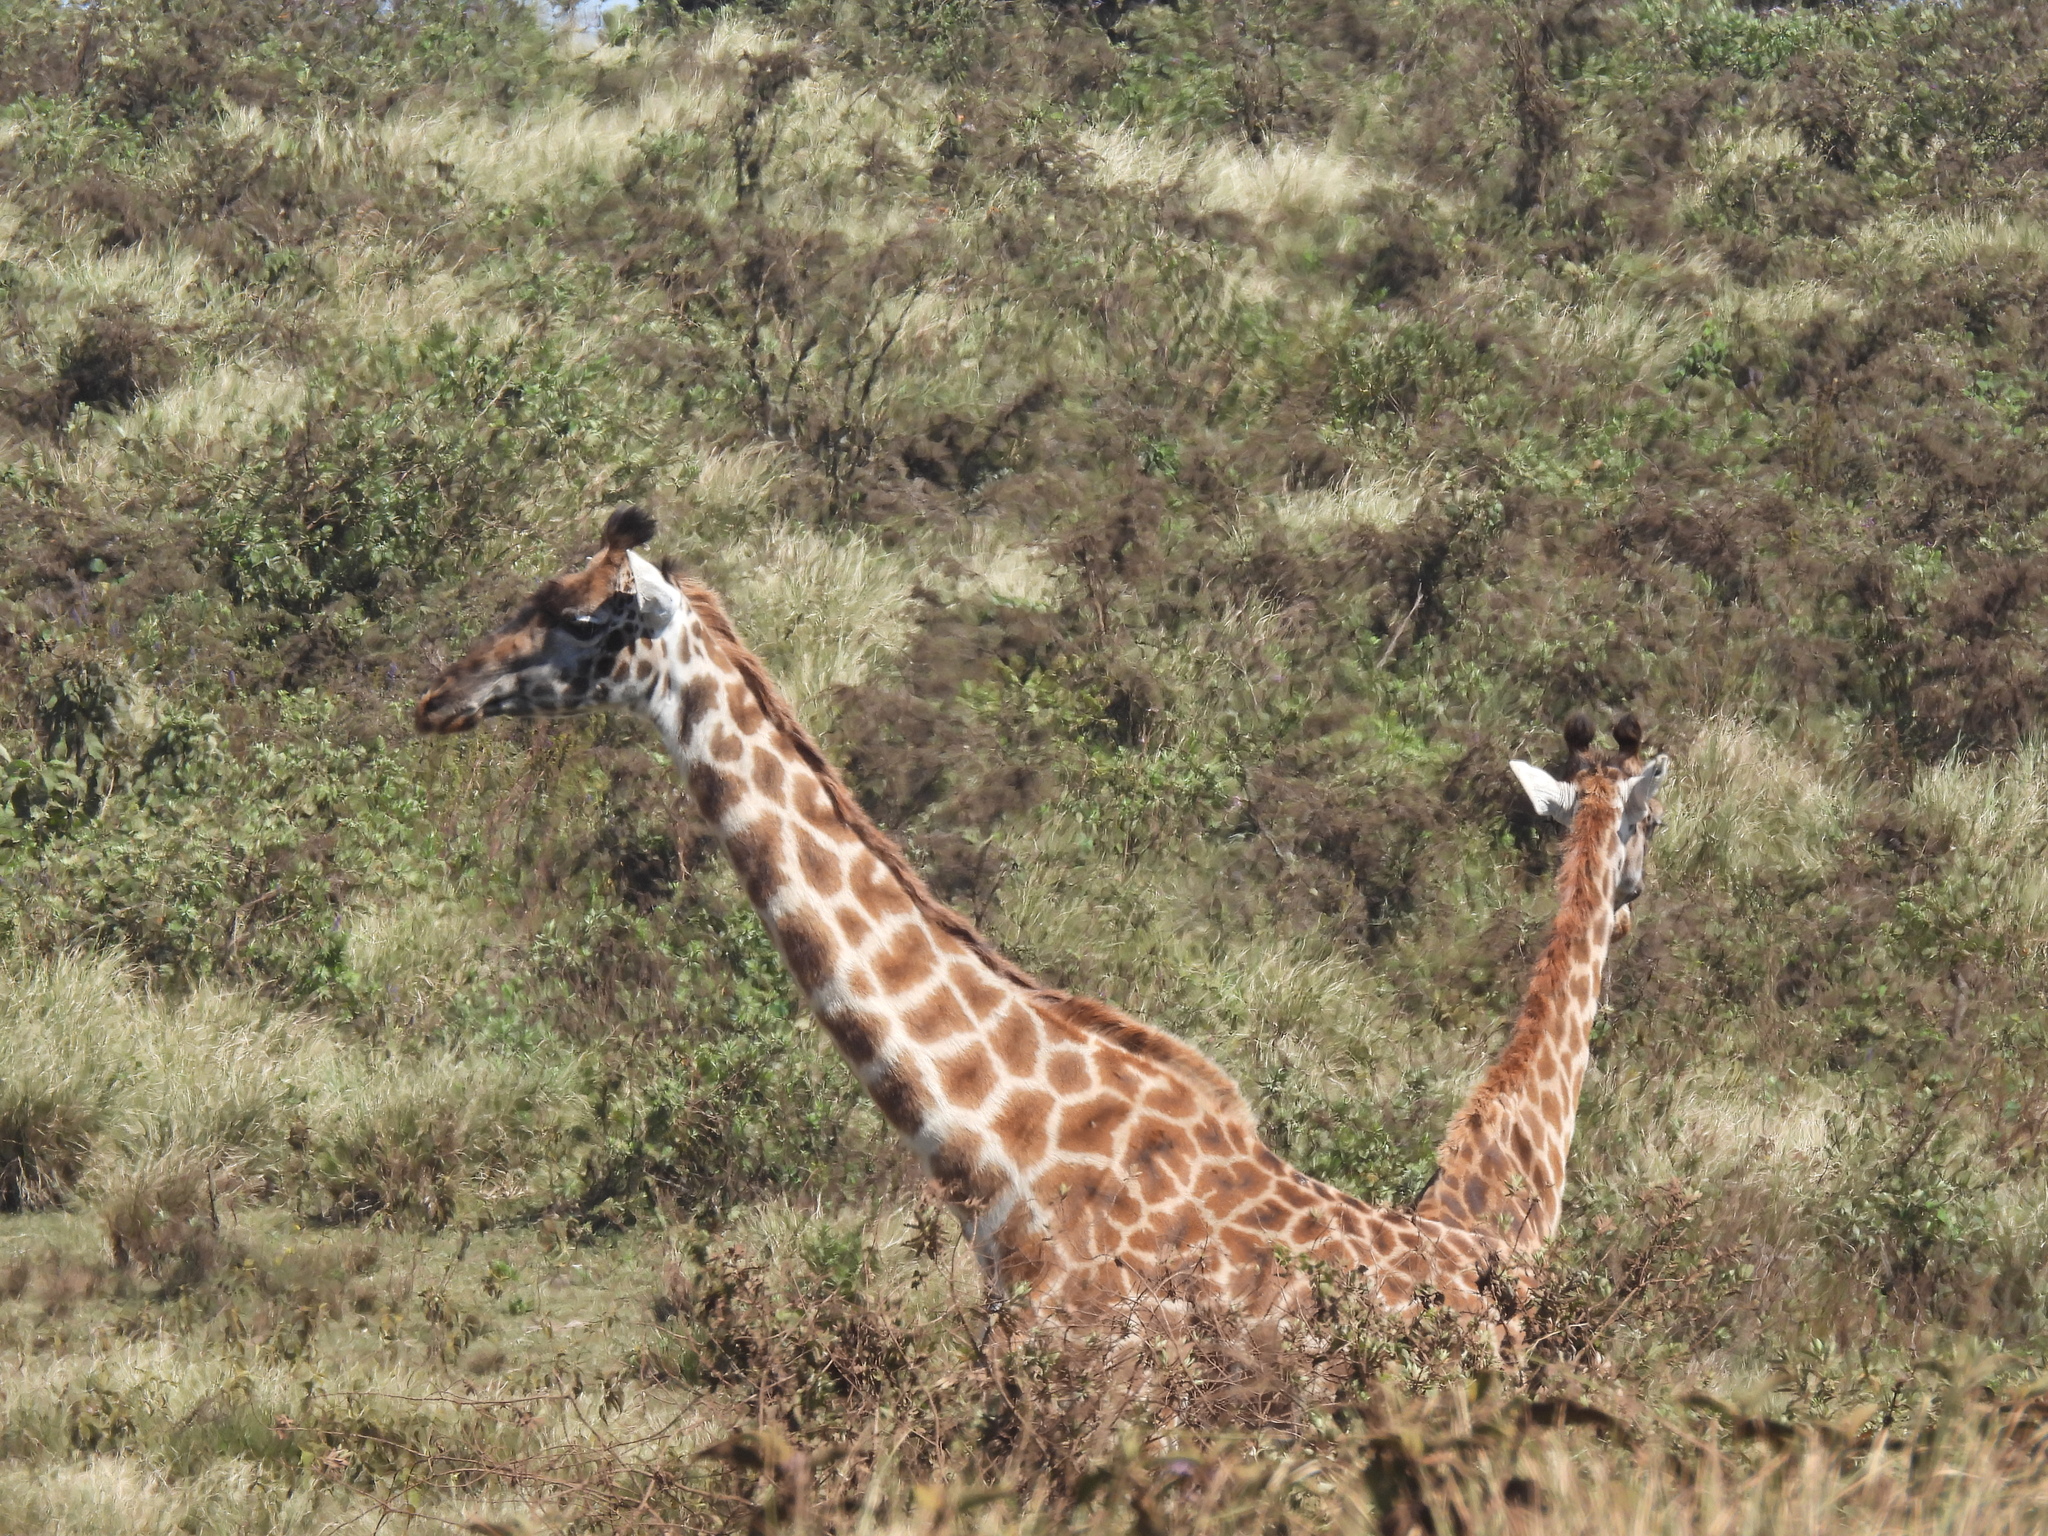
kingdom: Animalia
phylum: Chordata
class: Mammalia
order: Artiodactyla
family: Giraffidae
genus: Giraffa
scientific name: Giraffa tippelskirchi
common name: Masai giraffe
